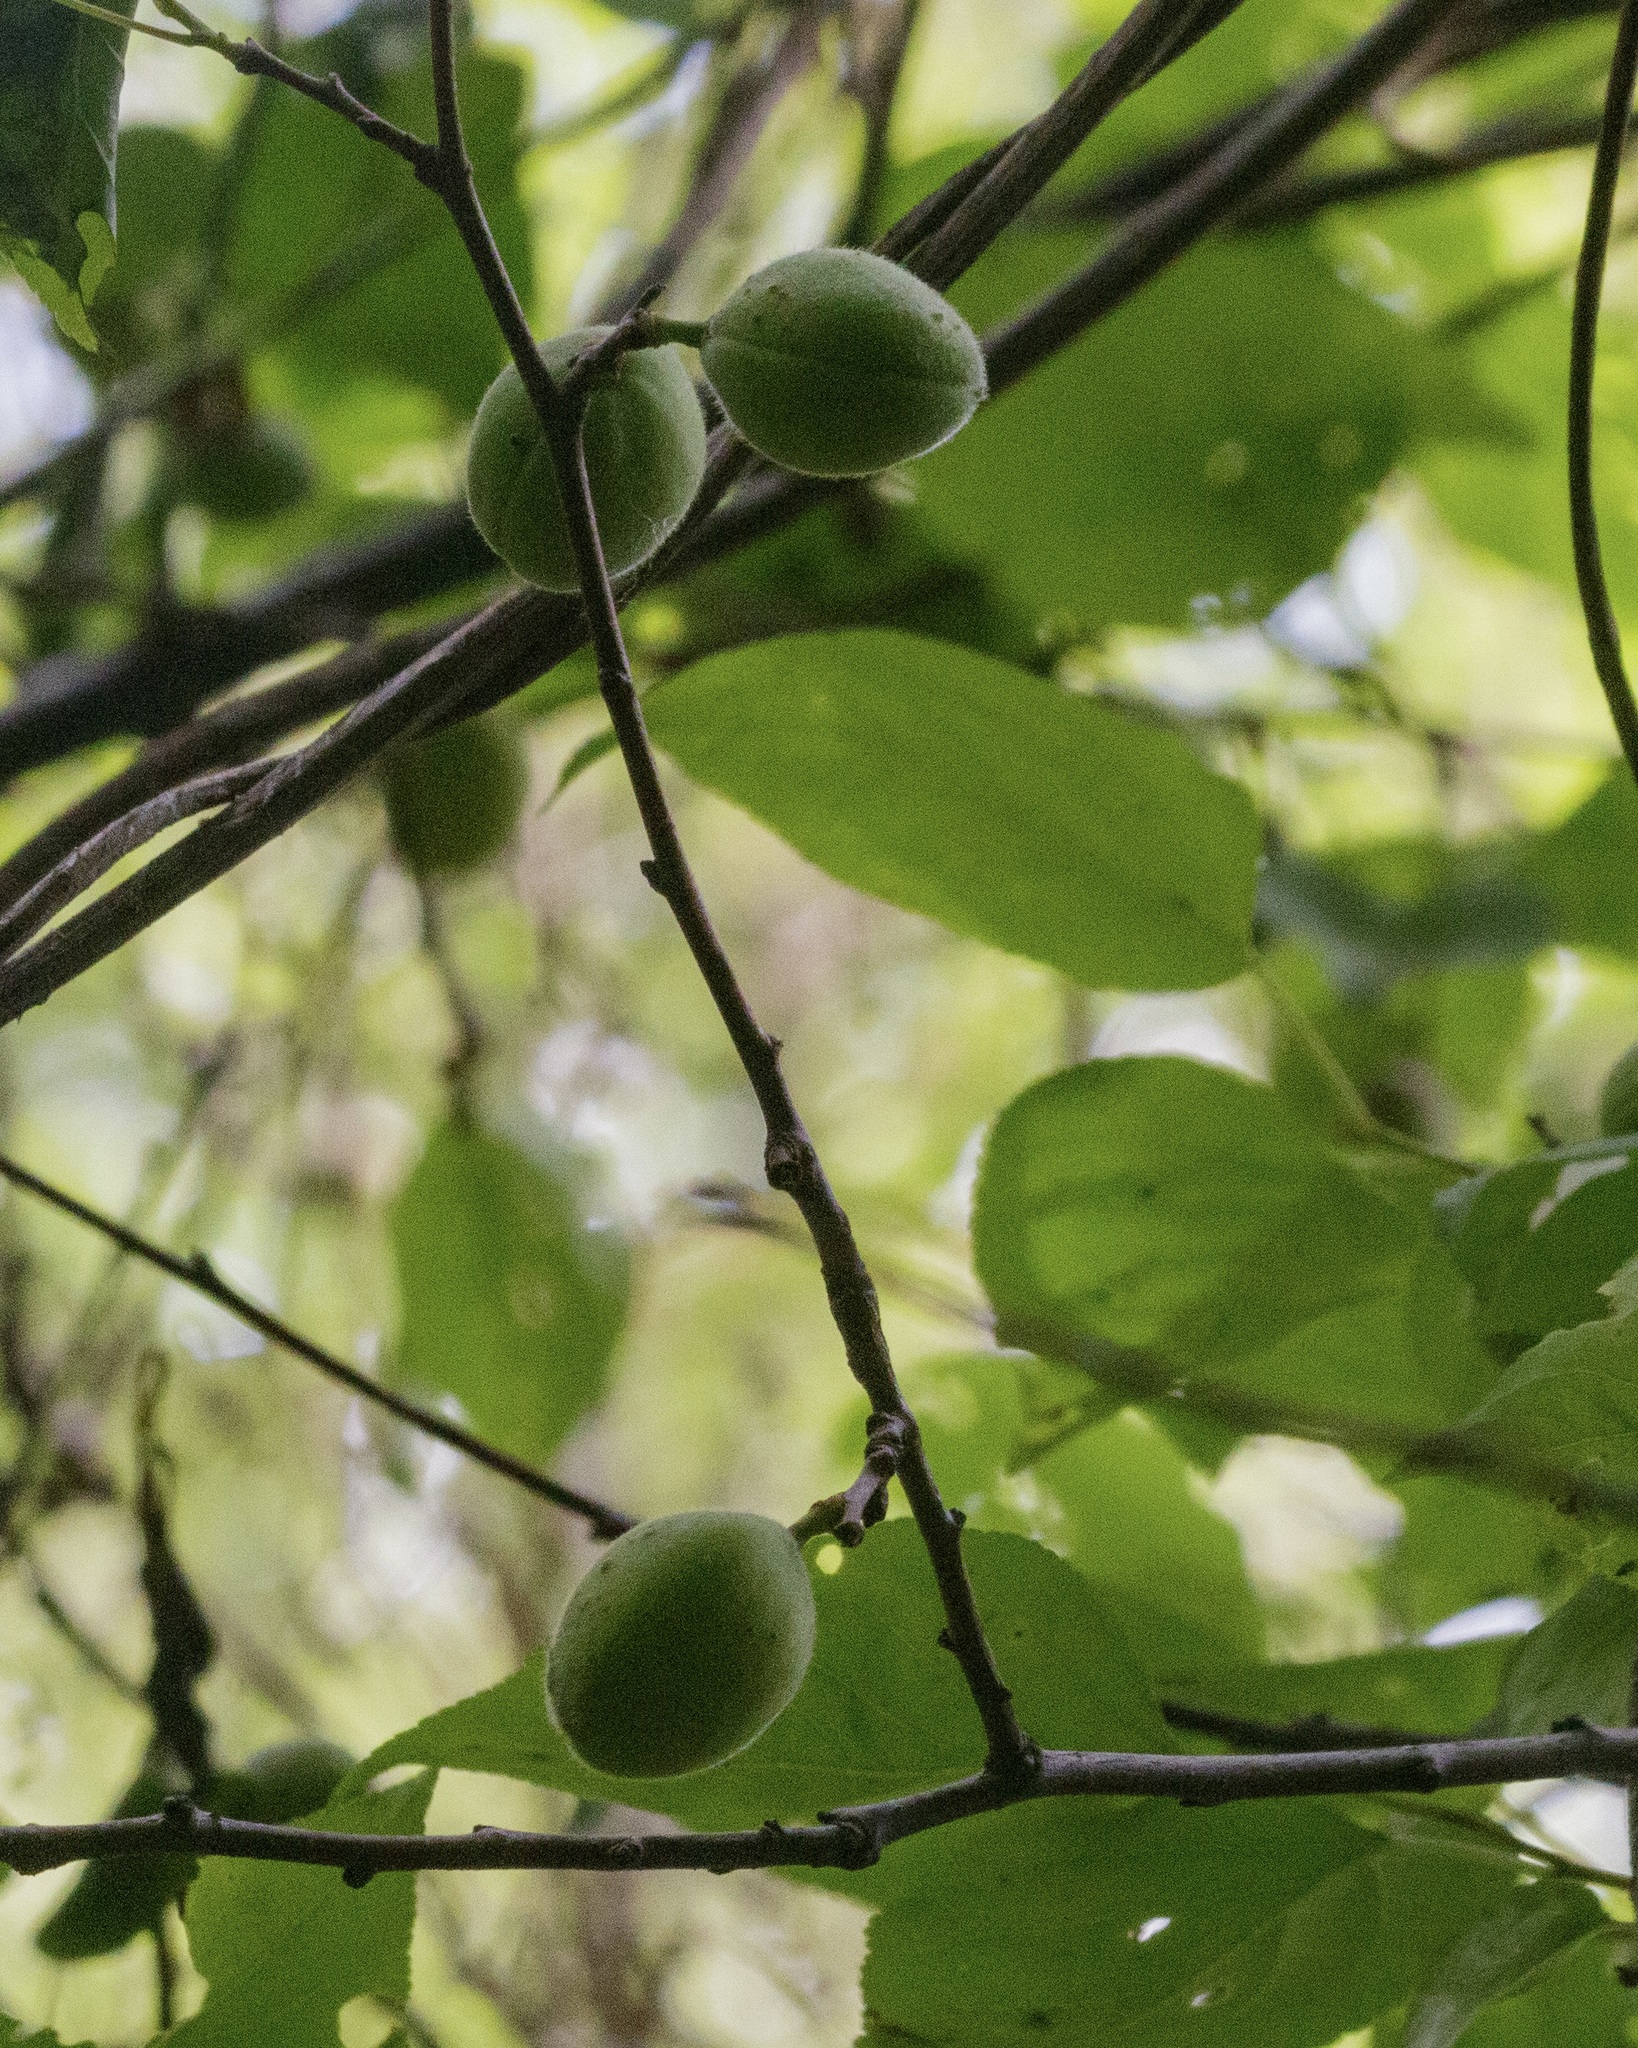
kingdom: Plantae
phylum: Tracheophyta
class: Magnoliopsida
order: Rosales
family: Rosaceae
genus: Prunus
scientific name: Prunus armeniaca
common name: Apricot
